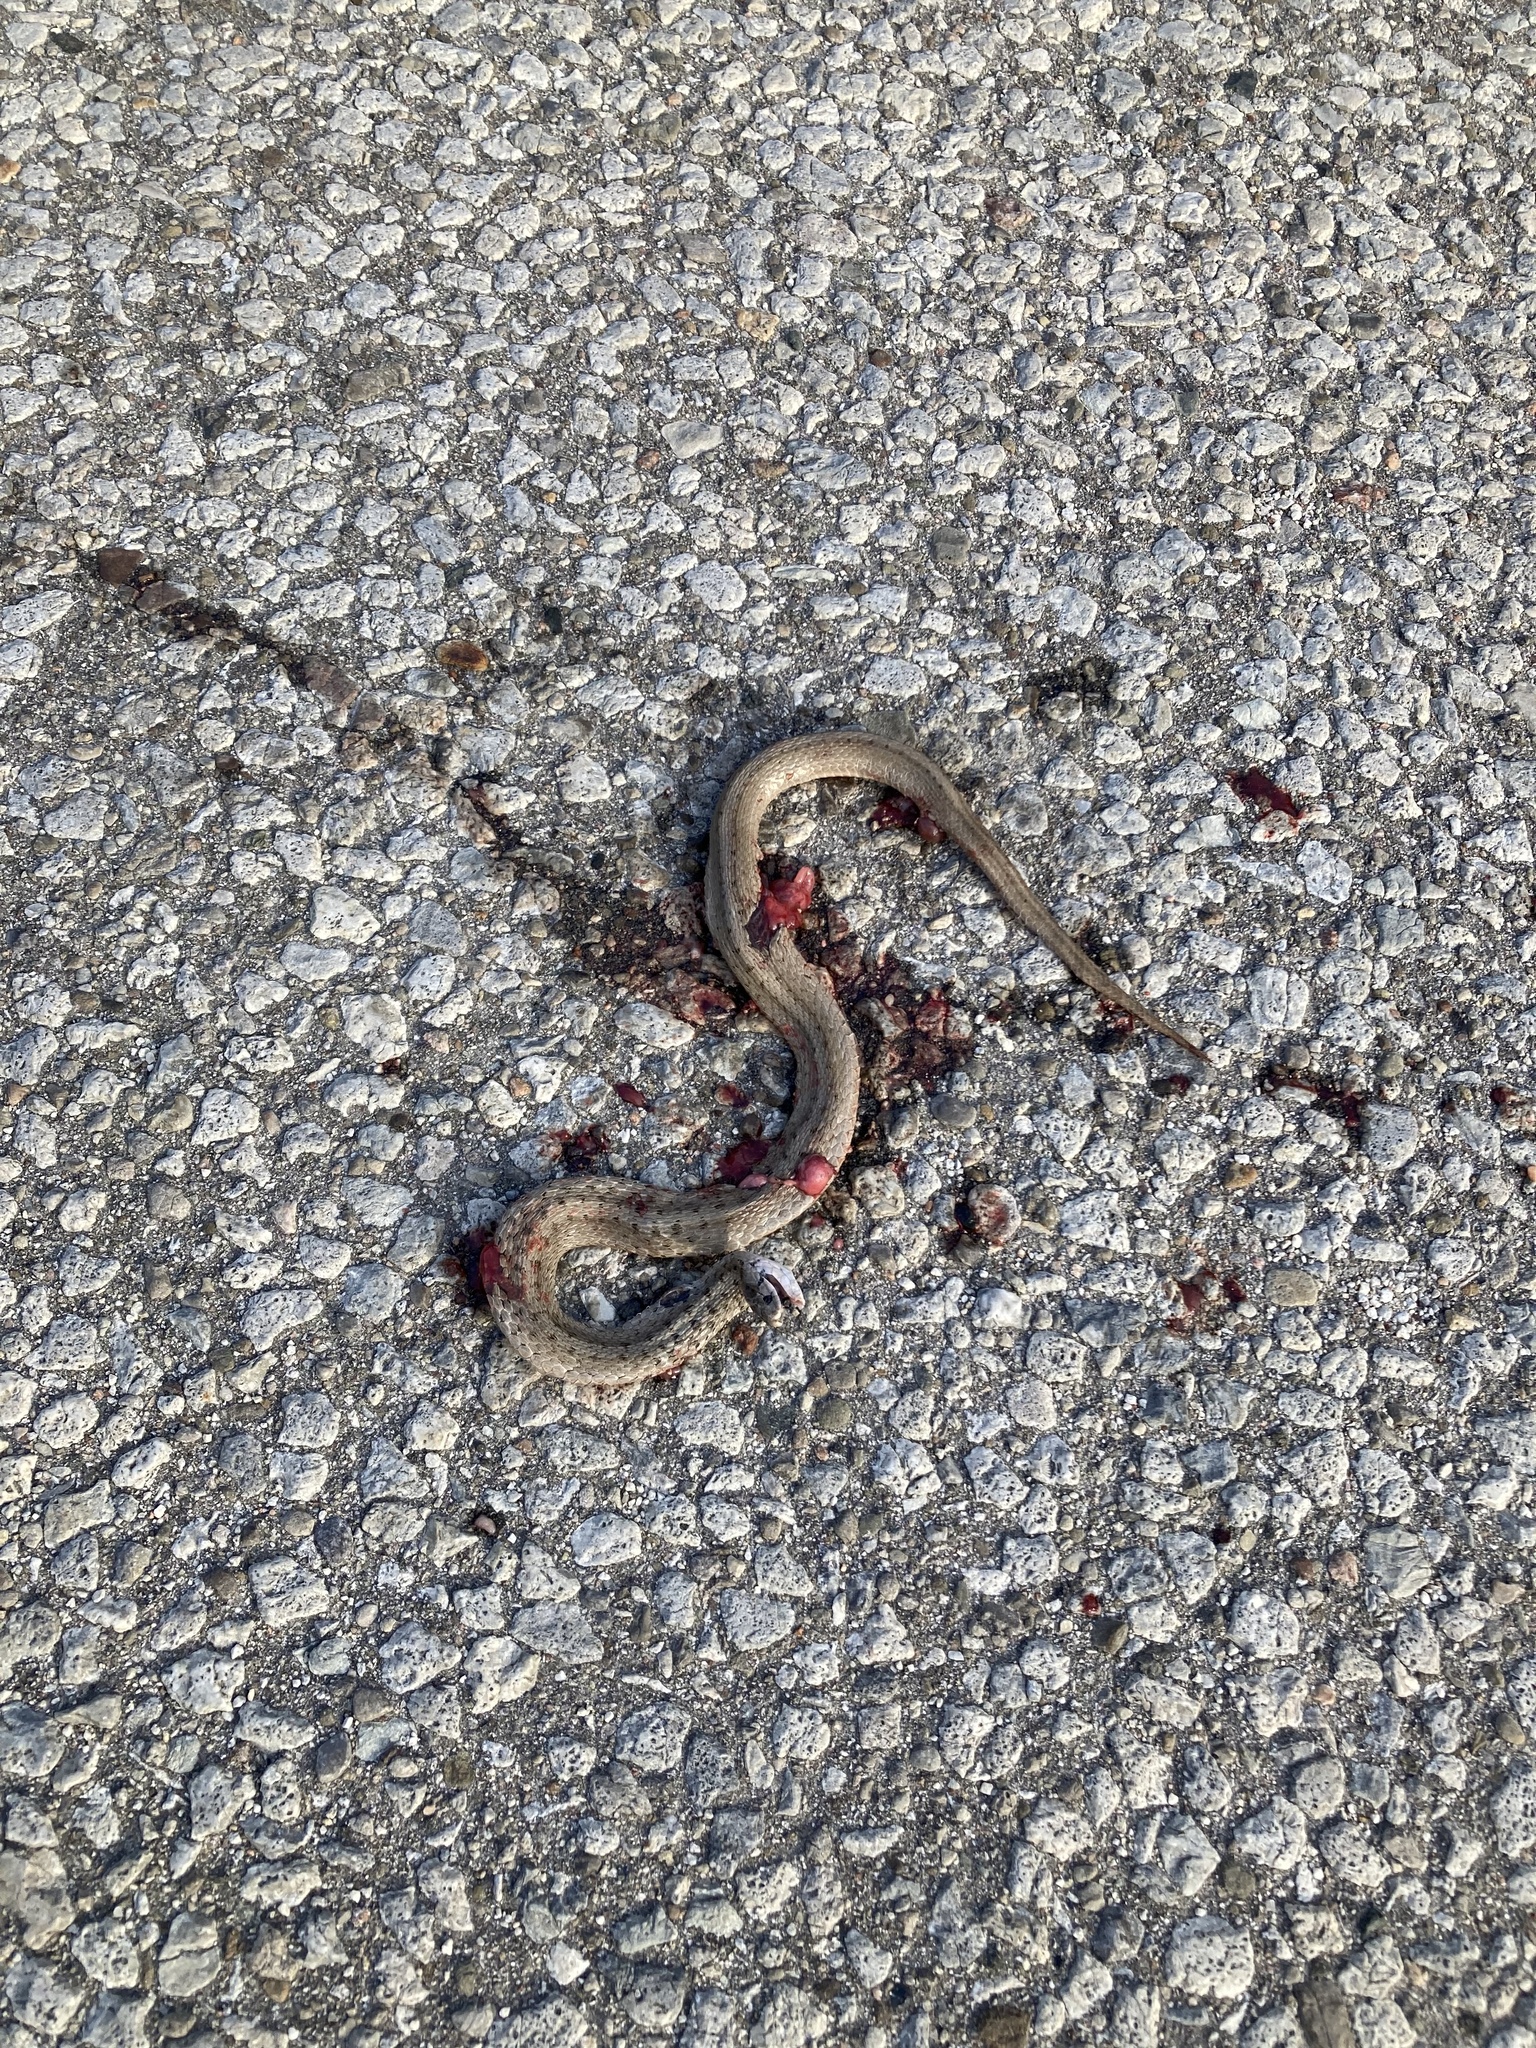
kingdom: Animalia
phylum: Chordata
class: Squamata
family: Colubridae
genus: Storeria
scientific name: Storeria dekayi
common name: (dekay’s) brown snake
